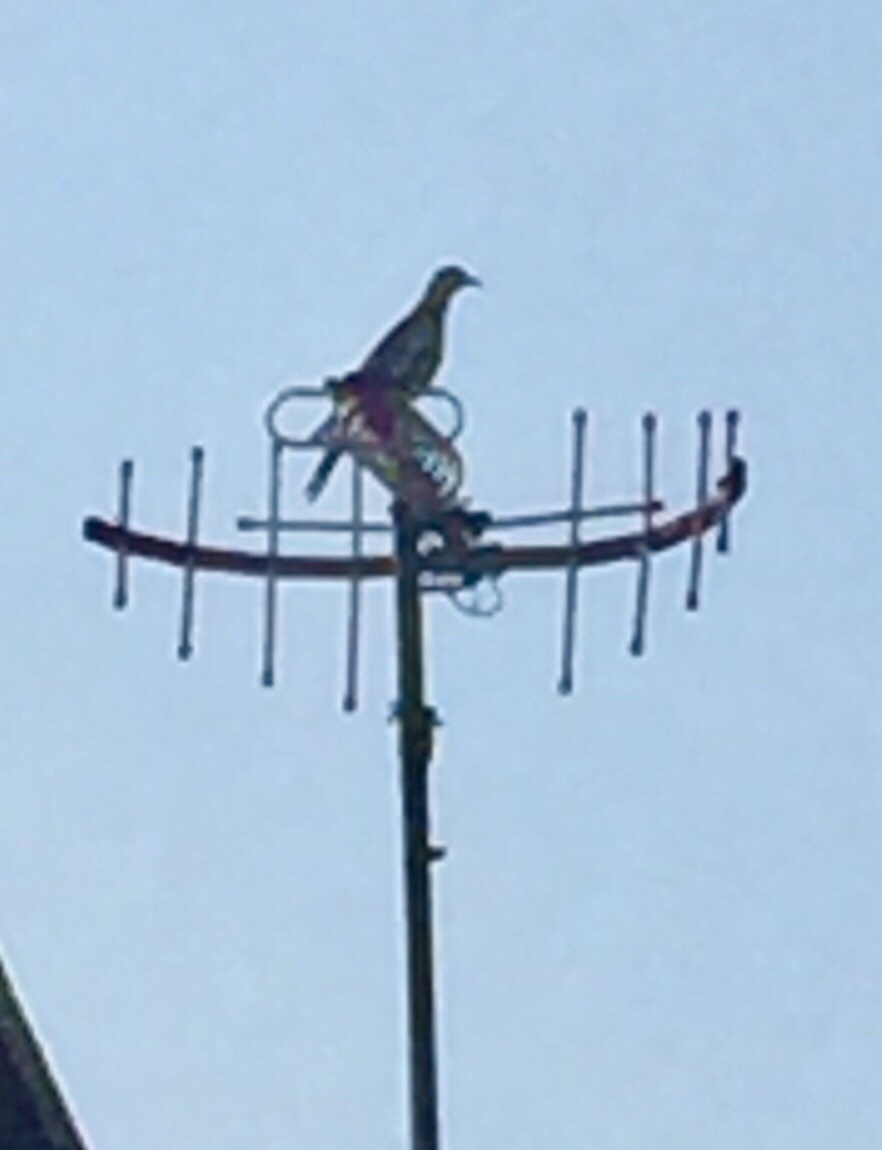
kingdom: Animalia
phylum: Chordata
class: Aves
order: Columbiformes
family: Columbidae
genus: Zenaida
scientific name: Zenaida asiatica
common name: White-winged dove
